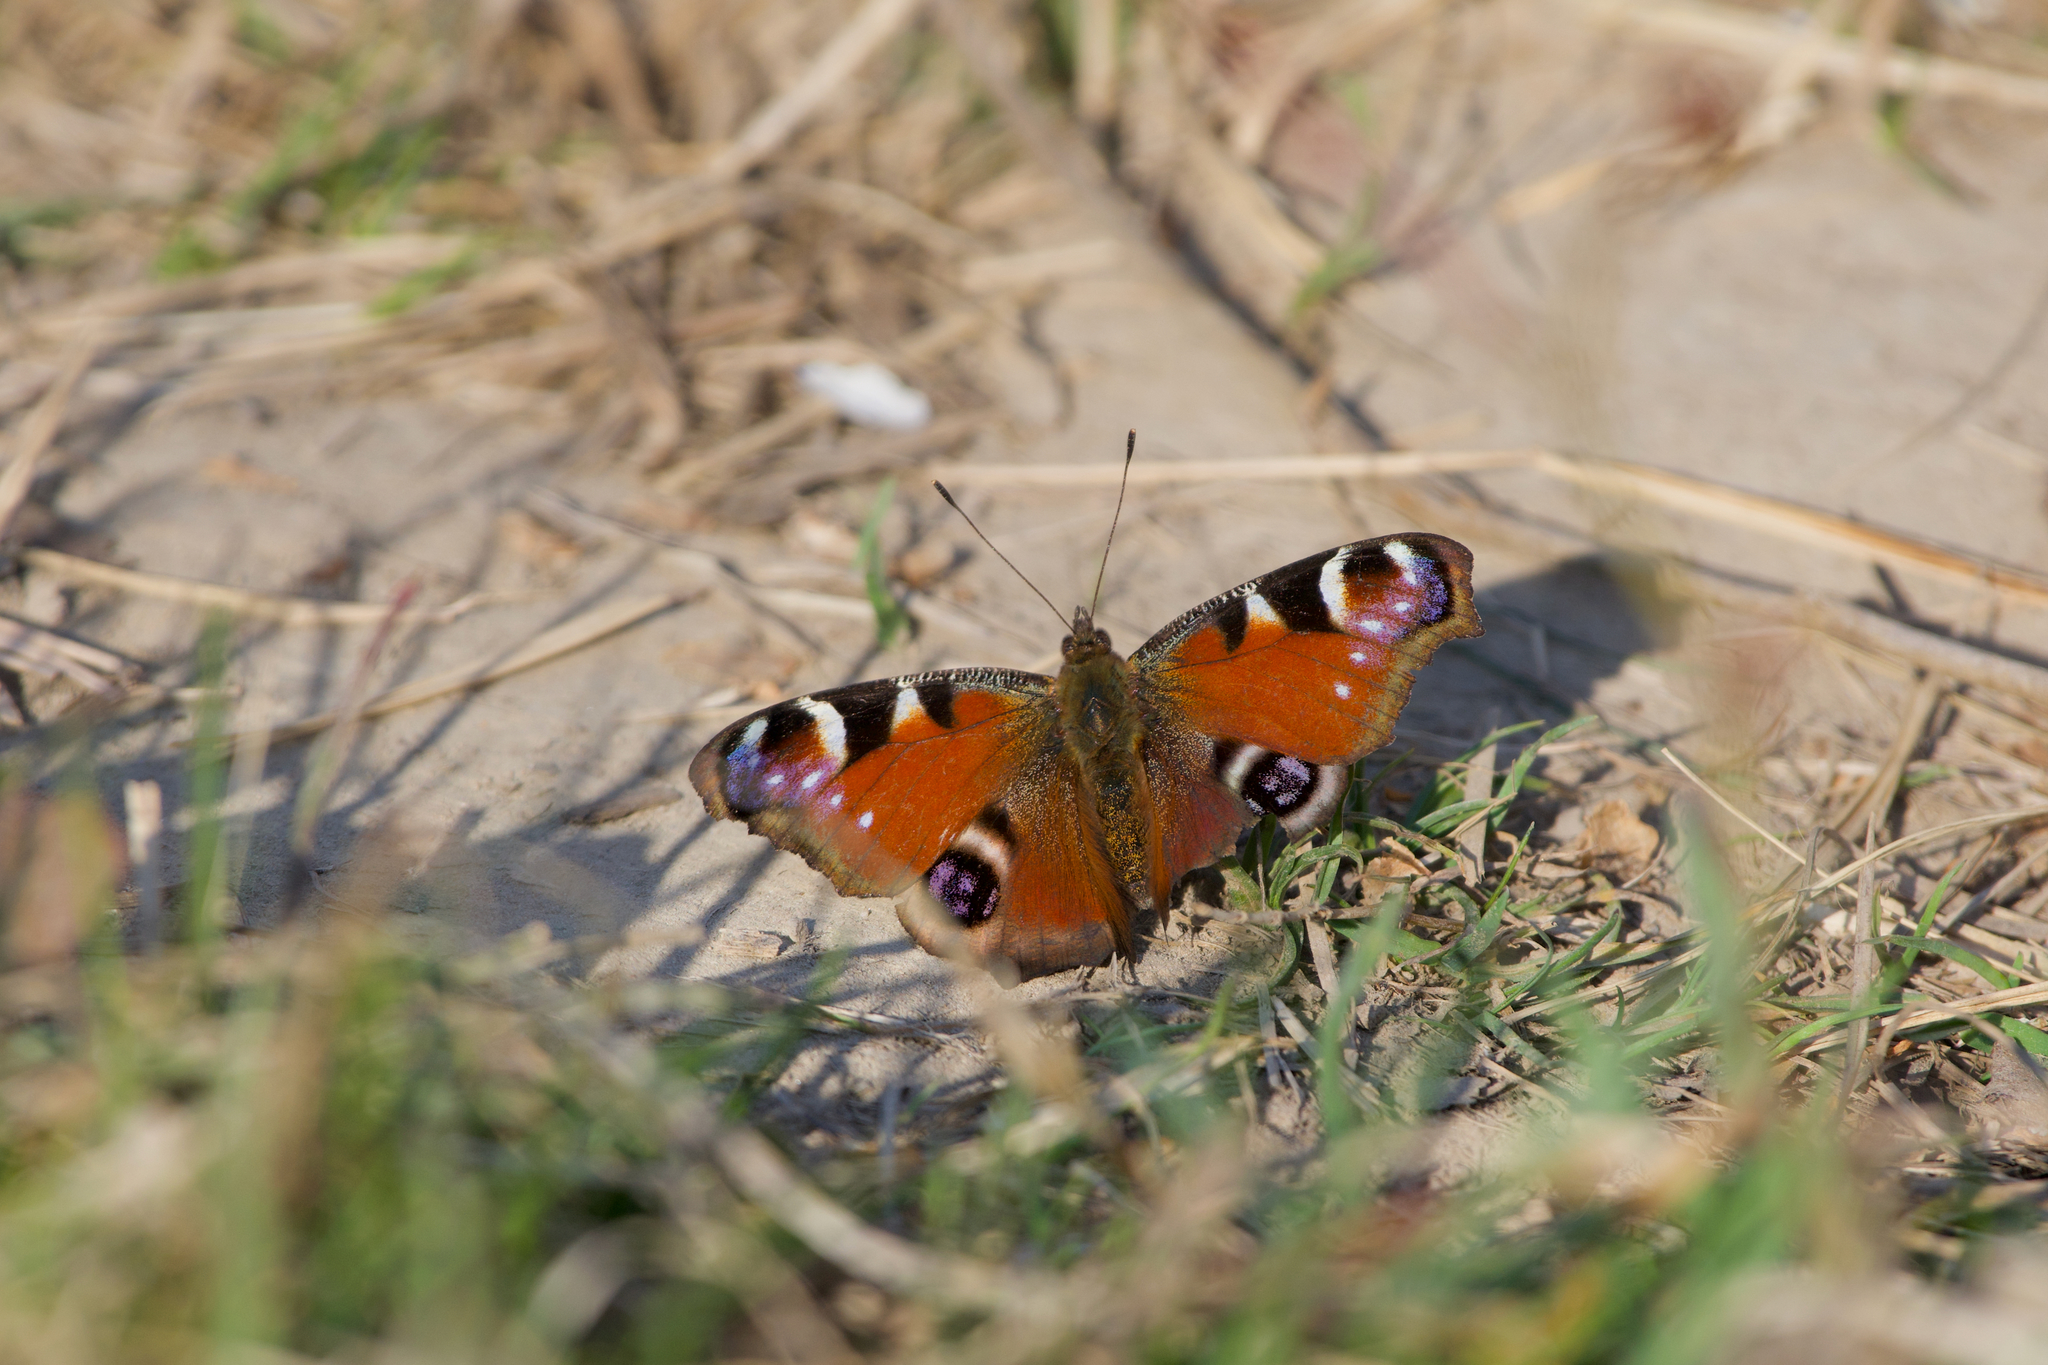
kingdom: Animalia
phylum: Arthropoda
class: Insecta
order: Lepidoptera
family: Nymphalidae
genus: Aglais
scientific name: Aglais io
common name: Peacock
